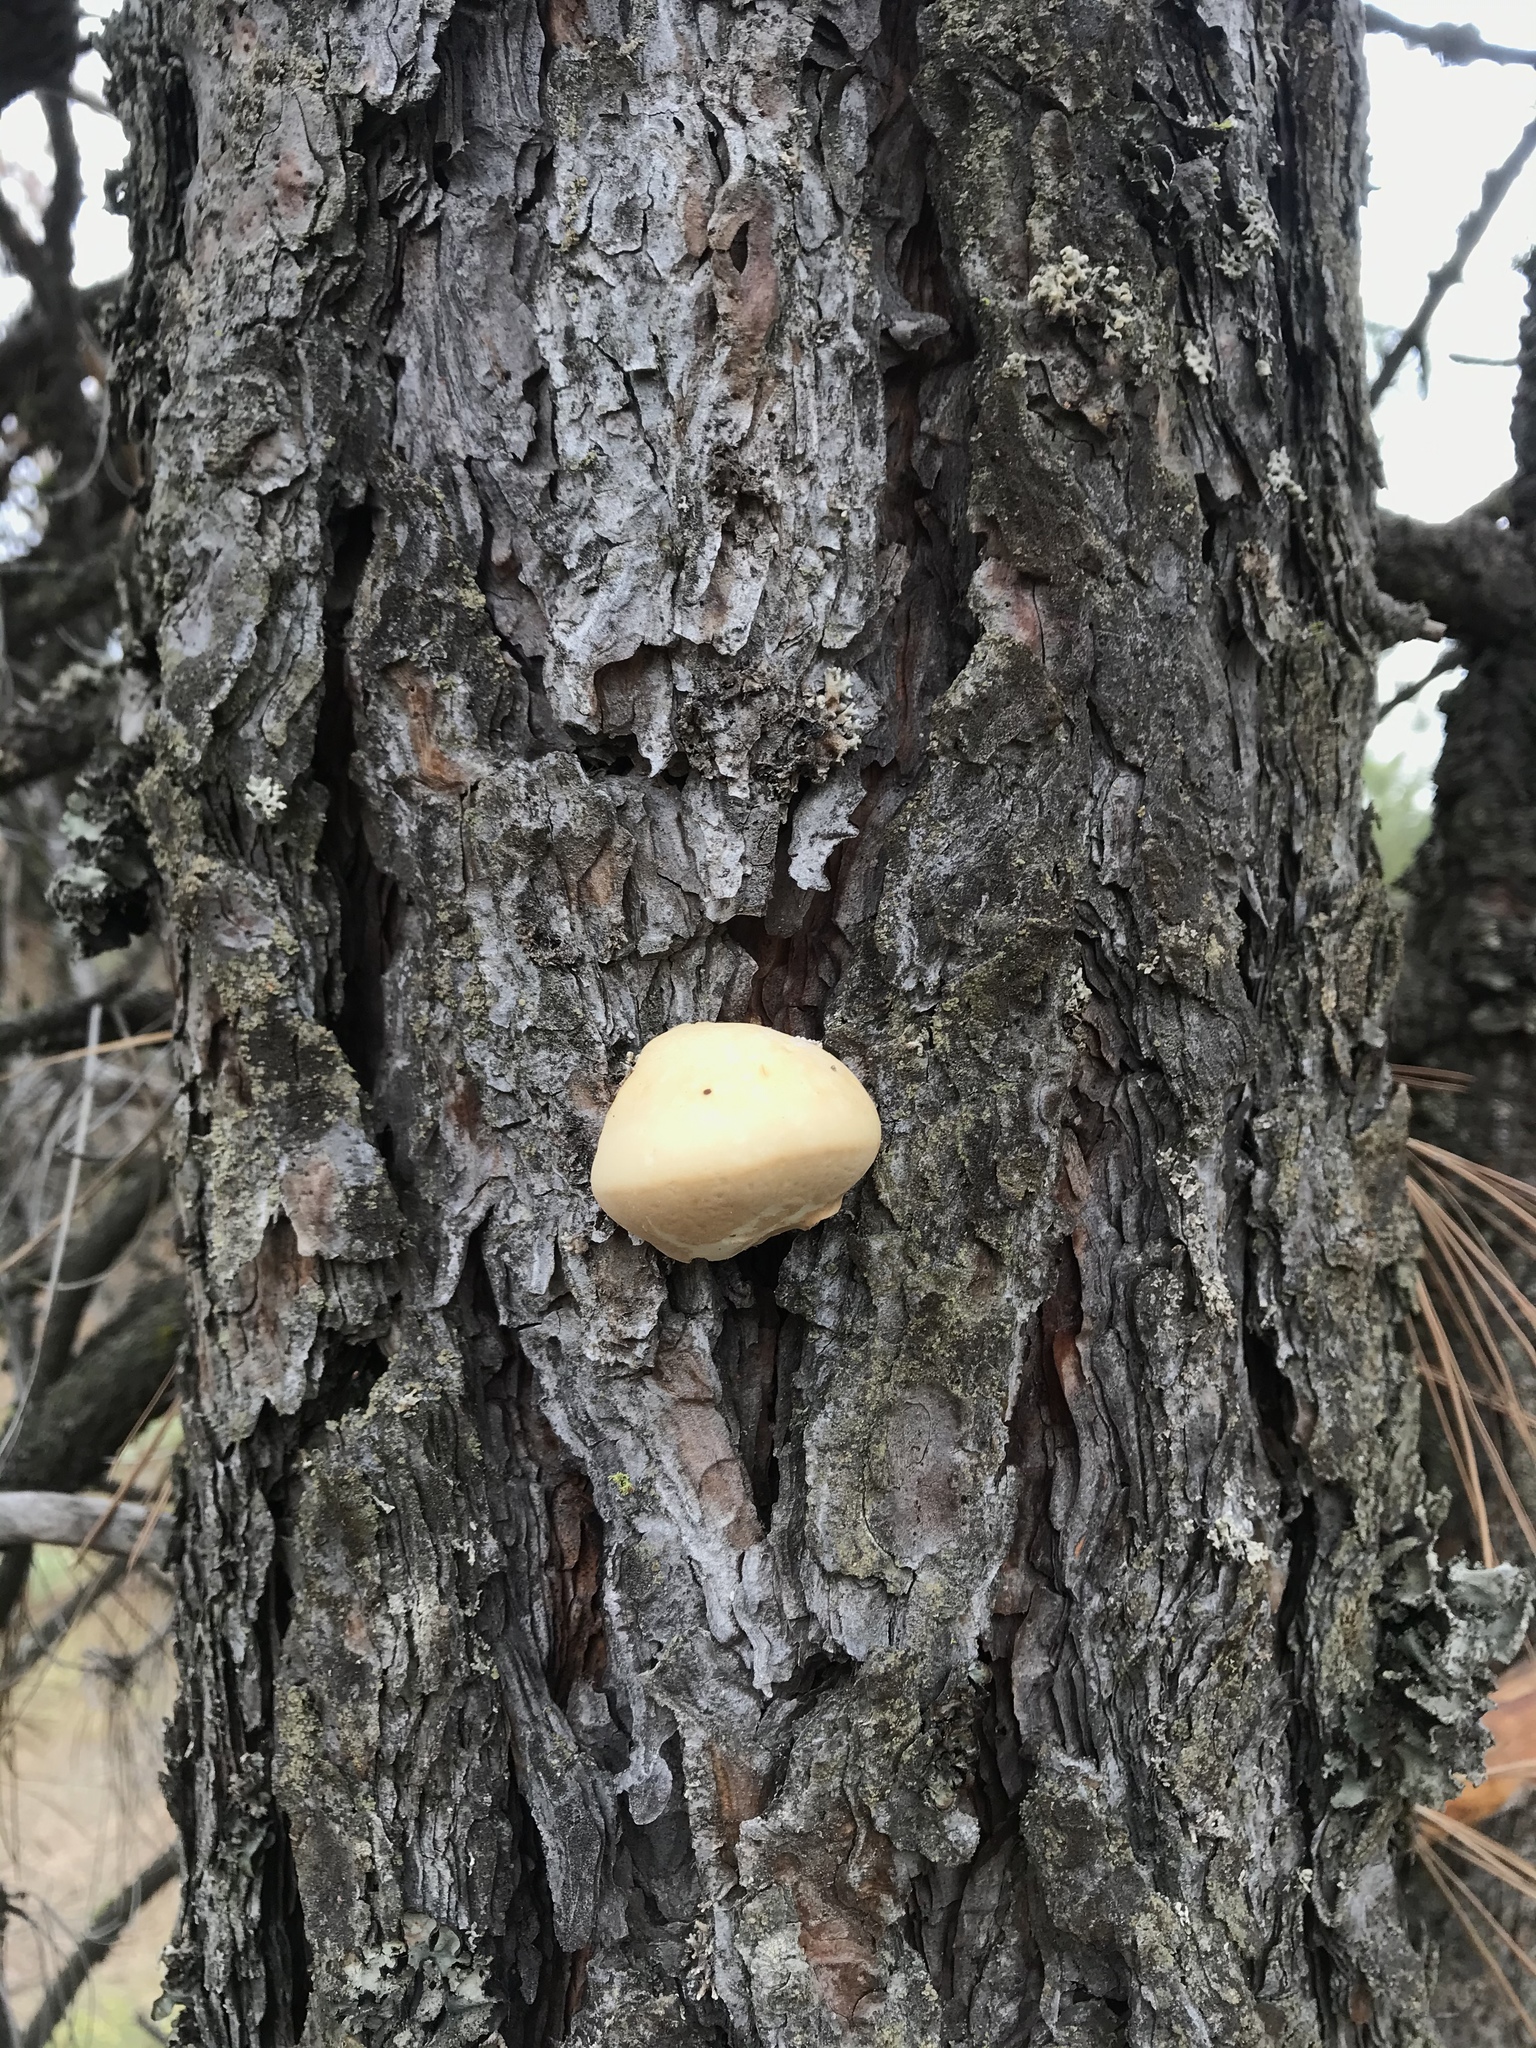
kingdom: Fungi
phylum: Basidiomycota
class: Agaricomycetes
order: Polyporales
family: Polyporaceae
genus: Cryptoporus
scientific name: Cryptoporus volvatus
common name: Veiled polypore
